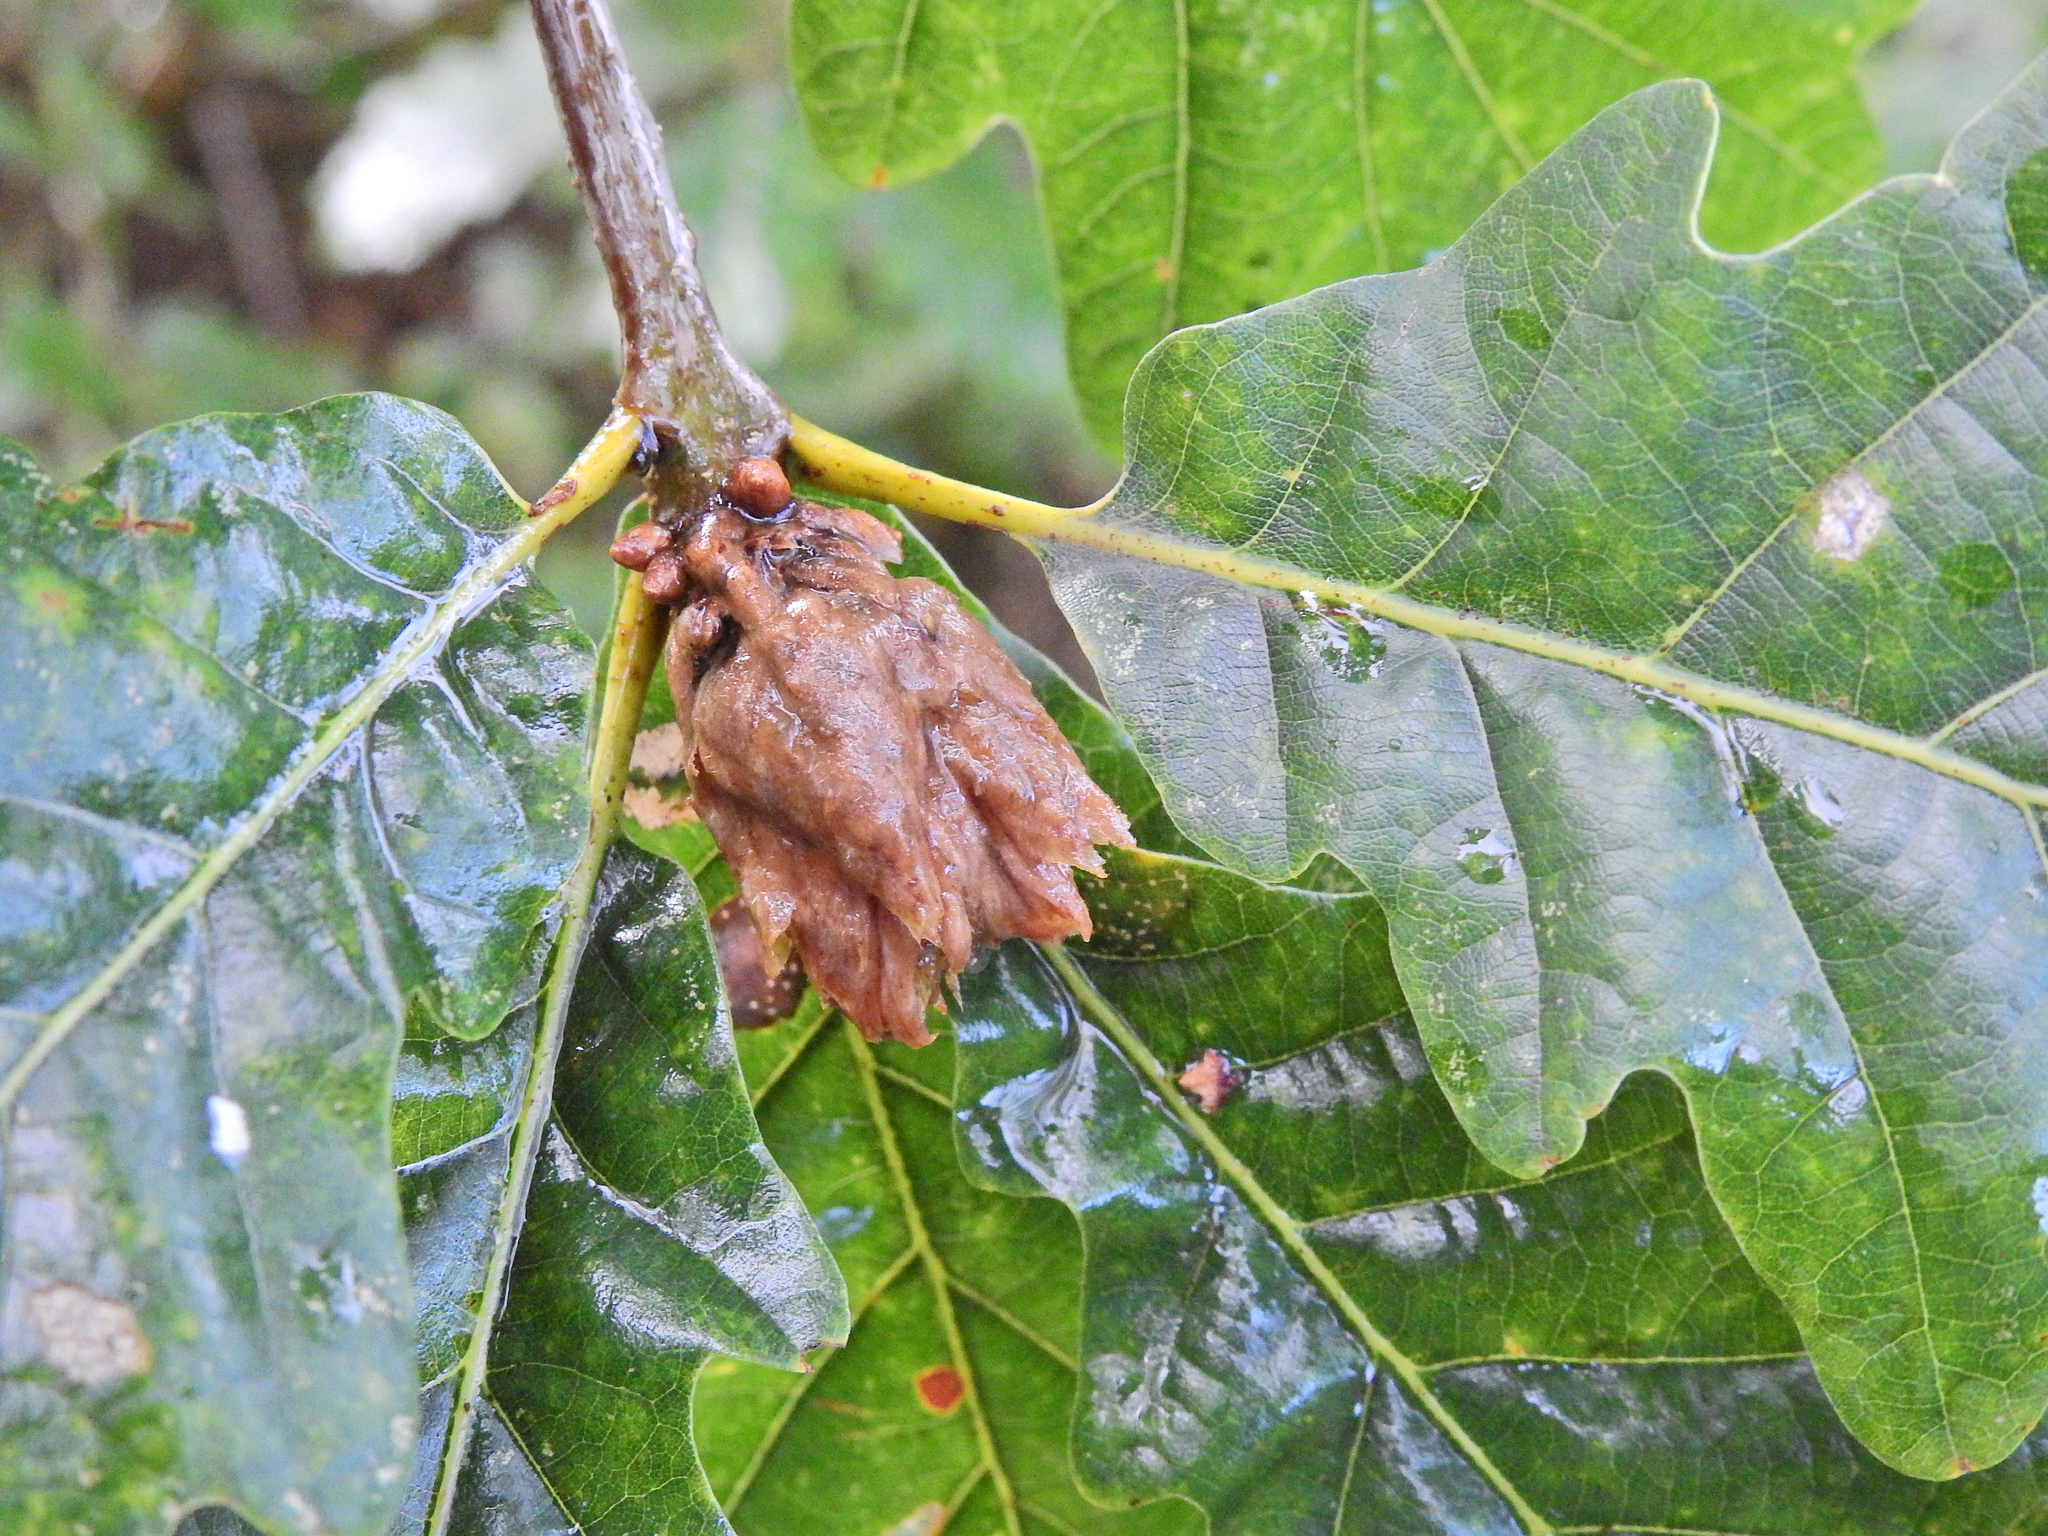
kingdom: Animalia
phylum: Arthropoda
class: Insecta
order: Hymenoptera
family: Cynipidae
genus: Andricus
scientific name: Andricus foecundatrix
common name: Artichoke gall
